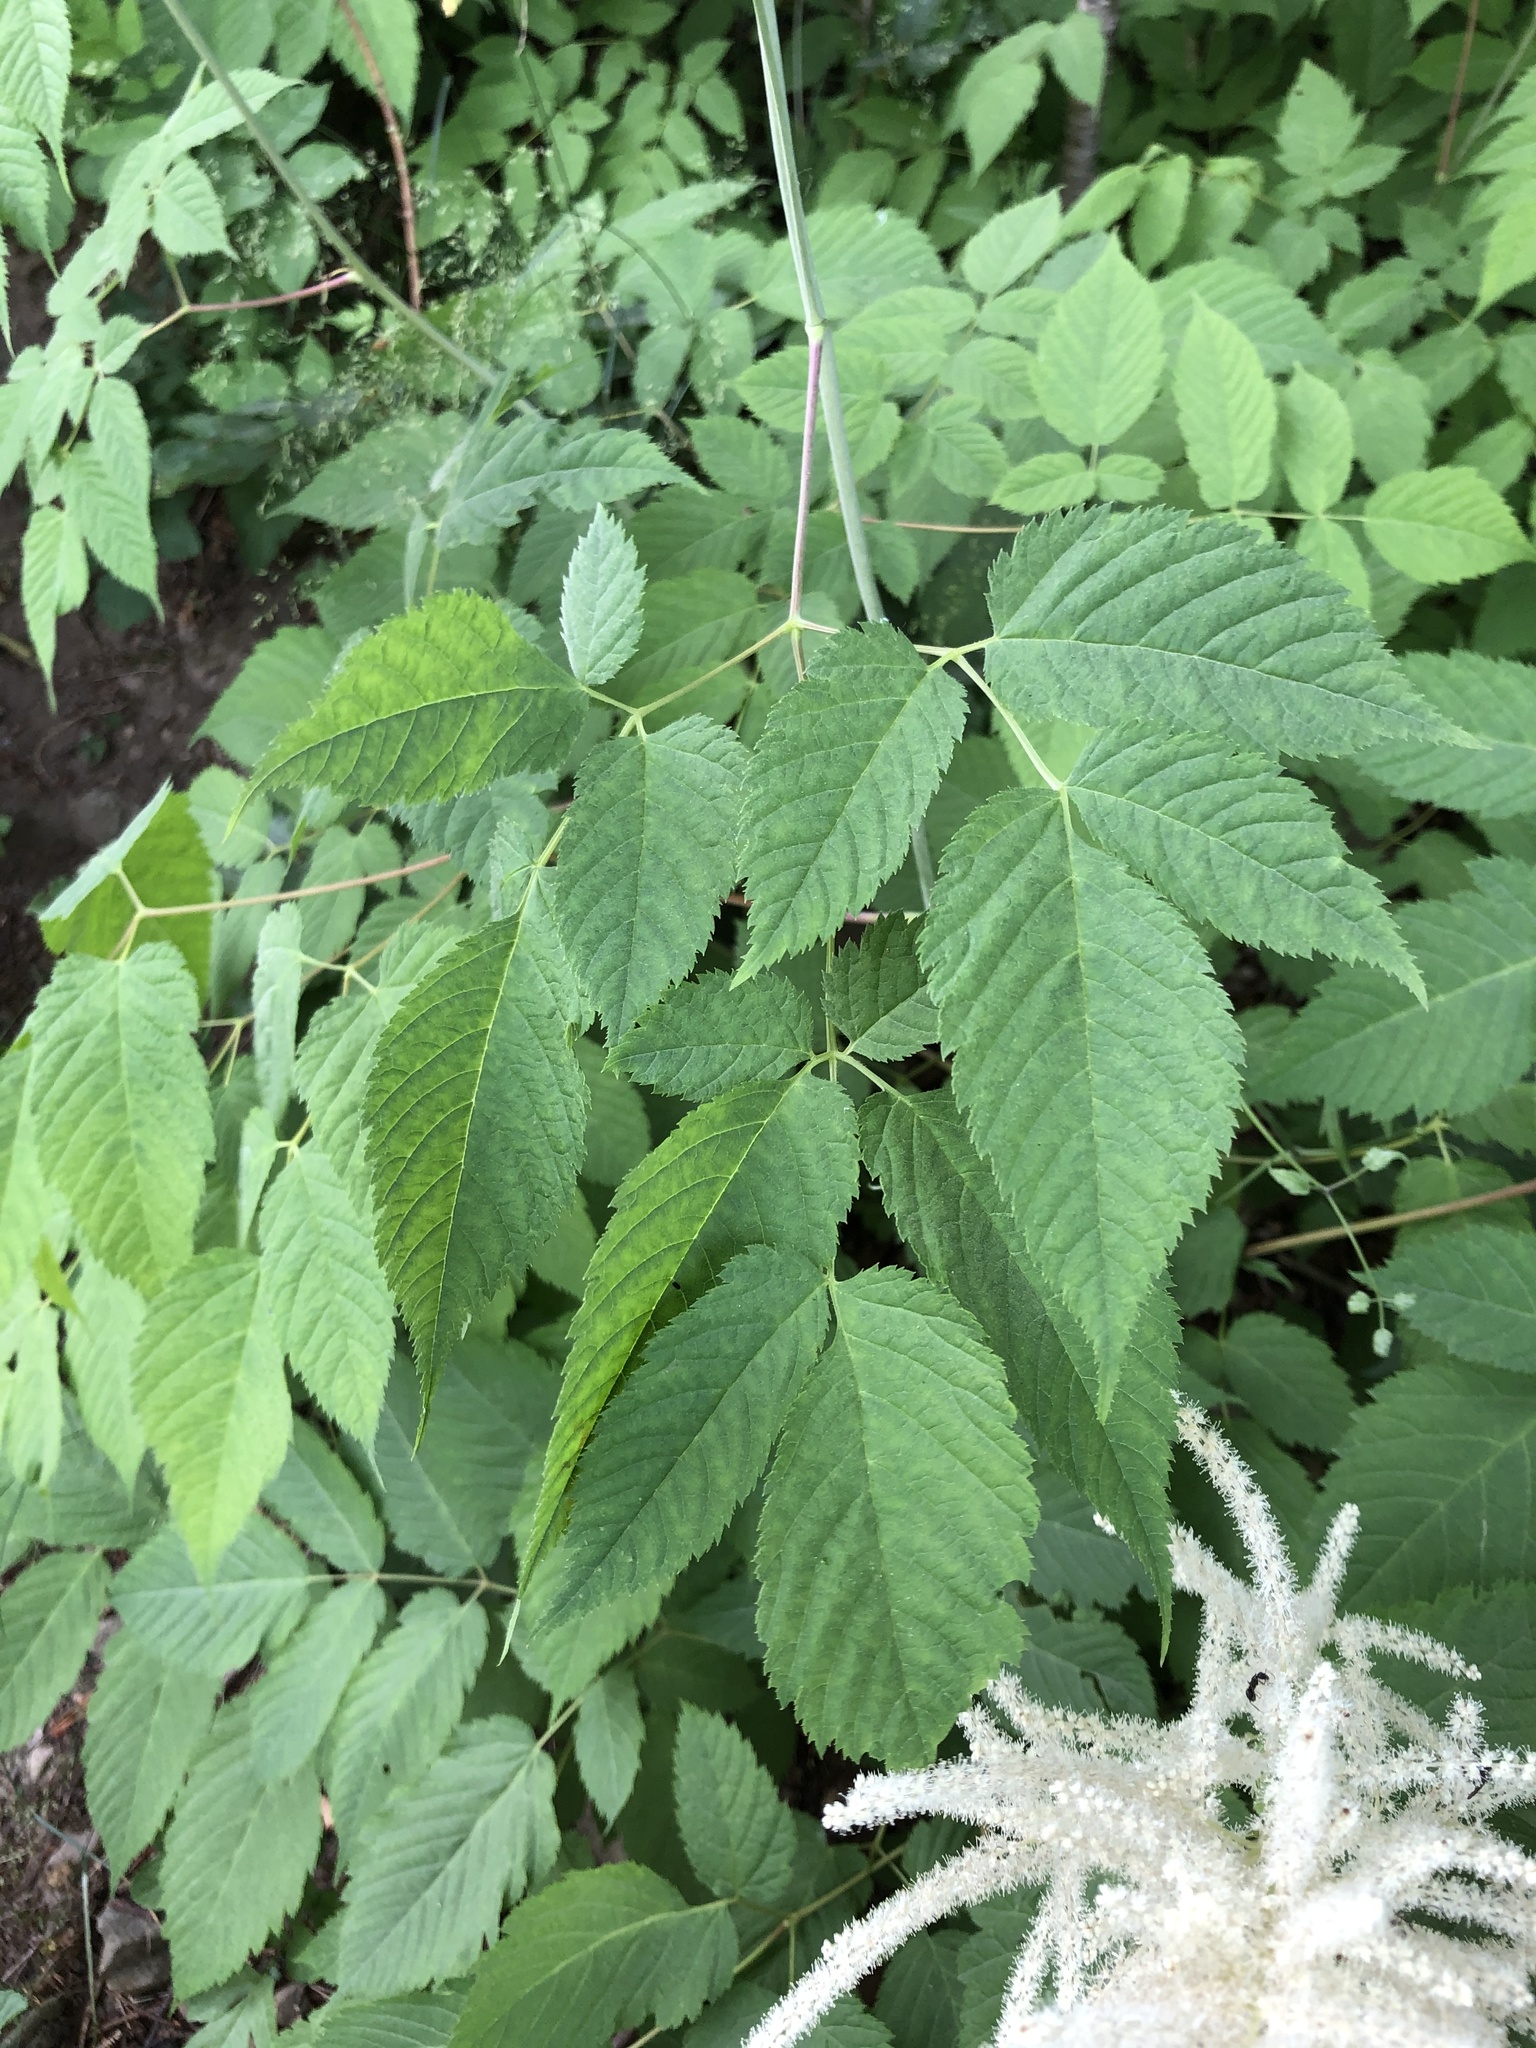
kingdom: Plantae
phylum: Tracheophyta
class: Magnoliopsida
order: Rosales
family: Rosaceae
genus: Aruncus
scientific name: Aruncus dioicus
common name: Buck's-beard
